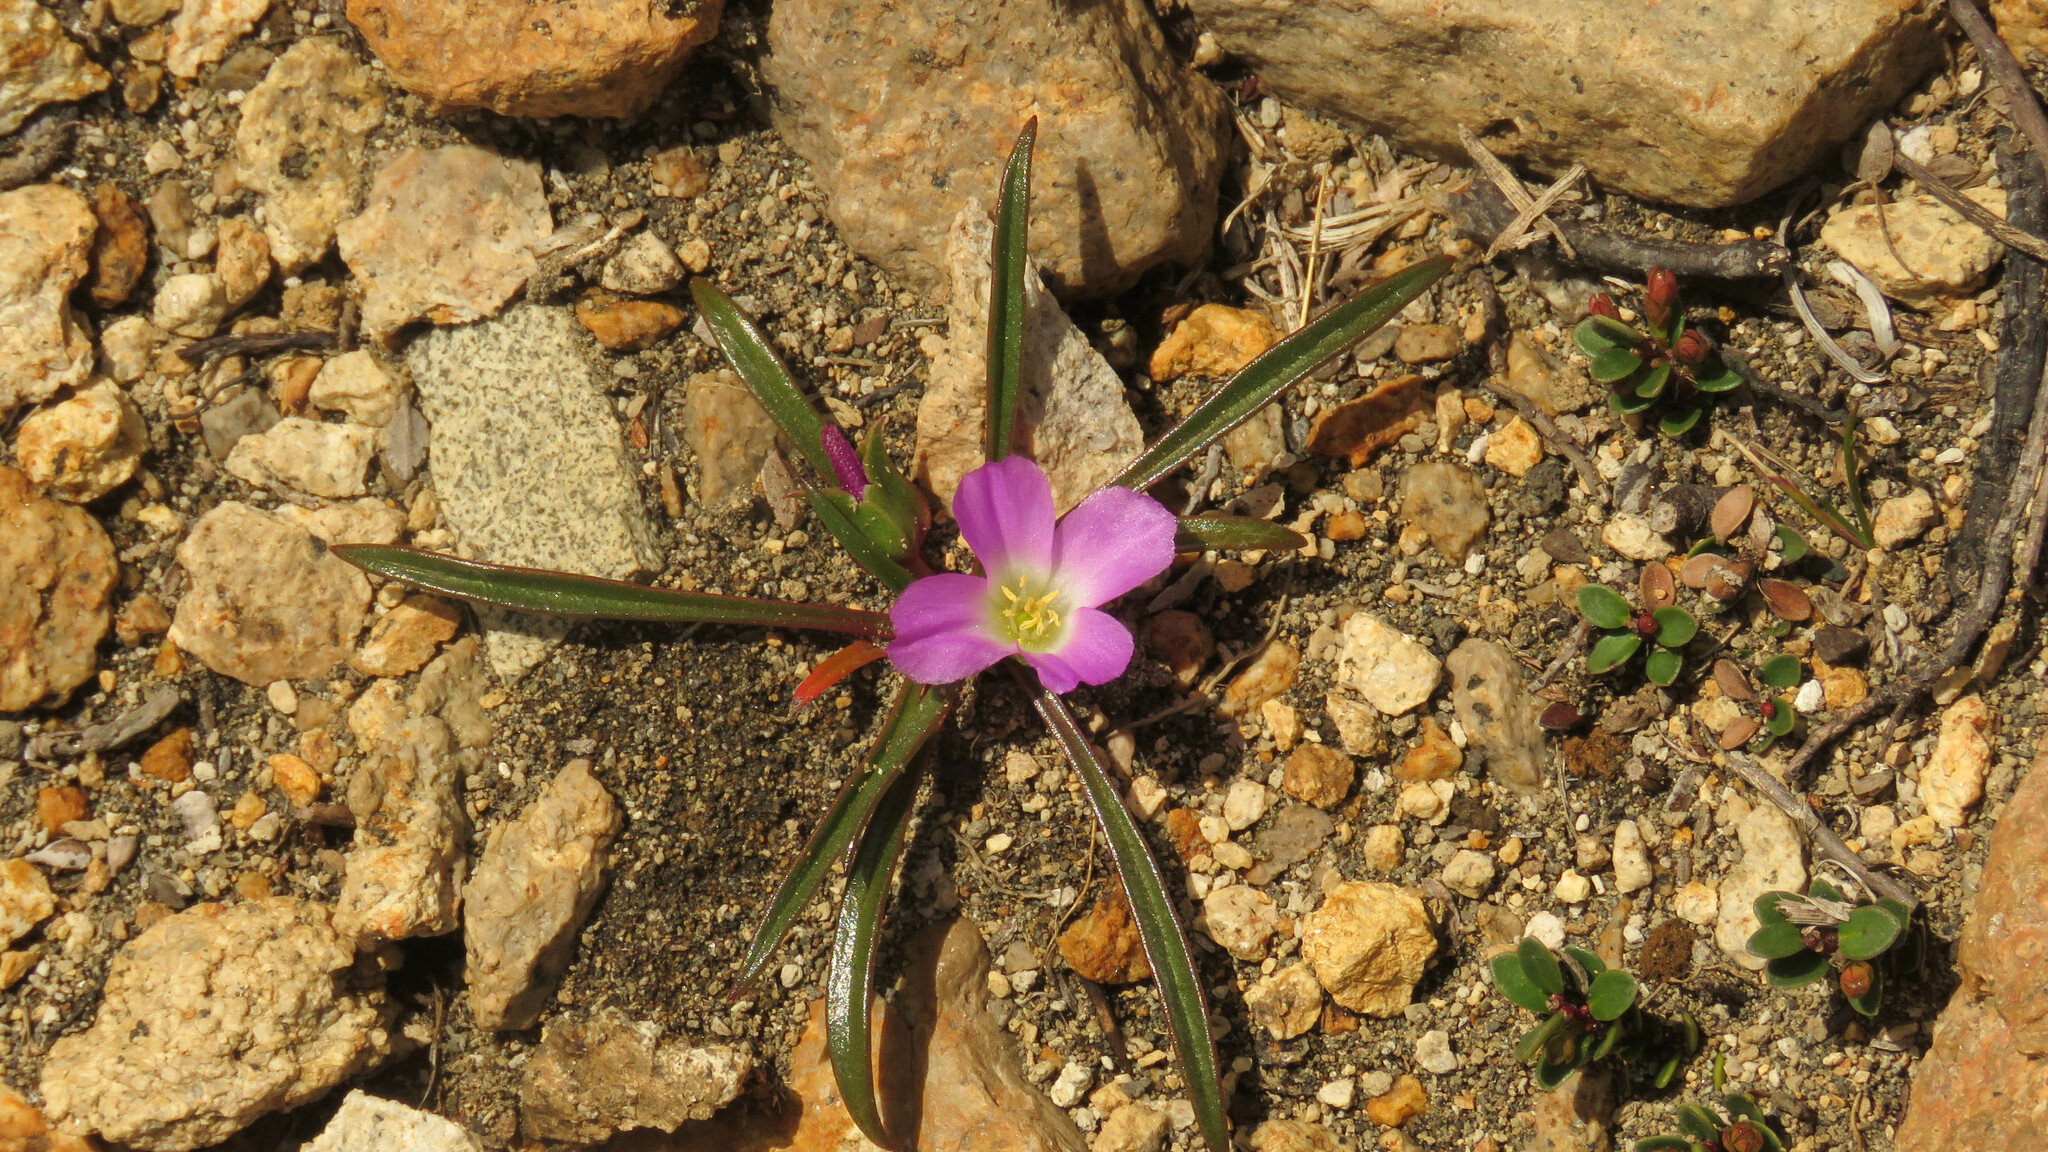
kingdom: Plantae
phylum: Tracheophyta
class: Magnoliopsida
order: Caryophyllales
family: Montiaceae
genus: Calandrinia
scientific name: Calandrinia colchaguensis
